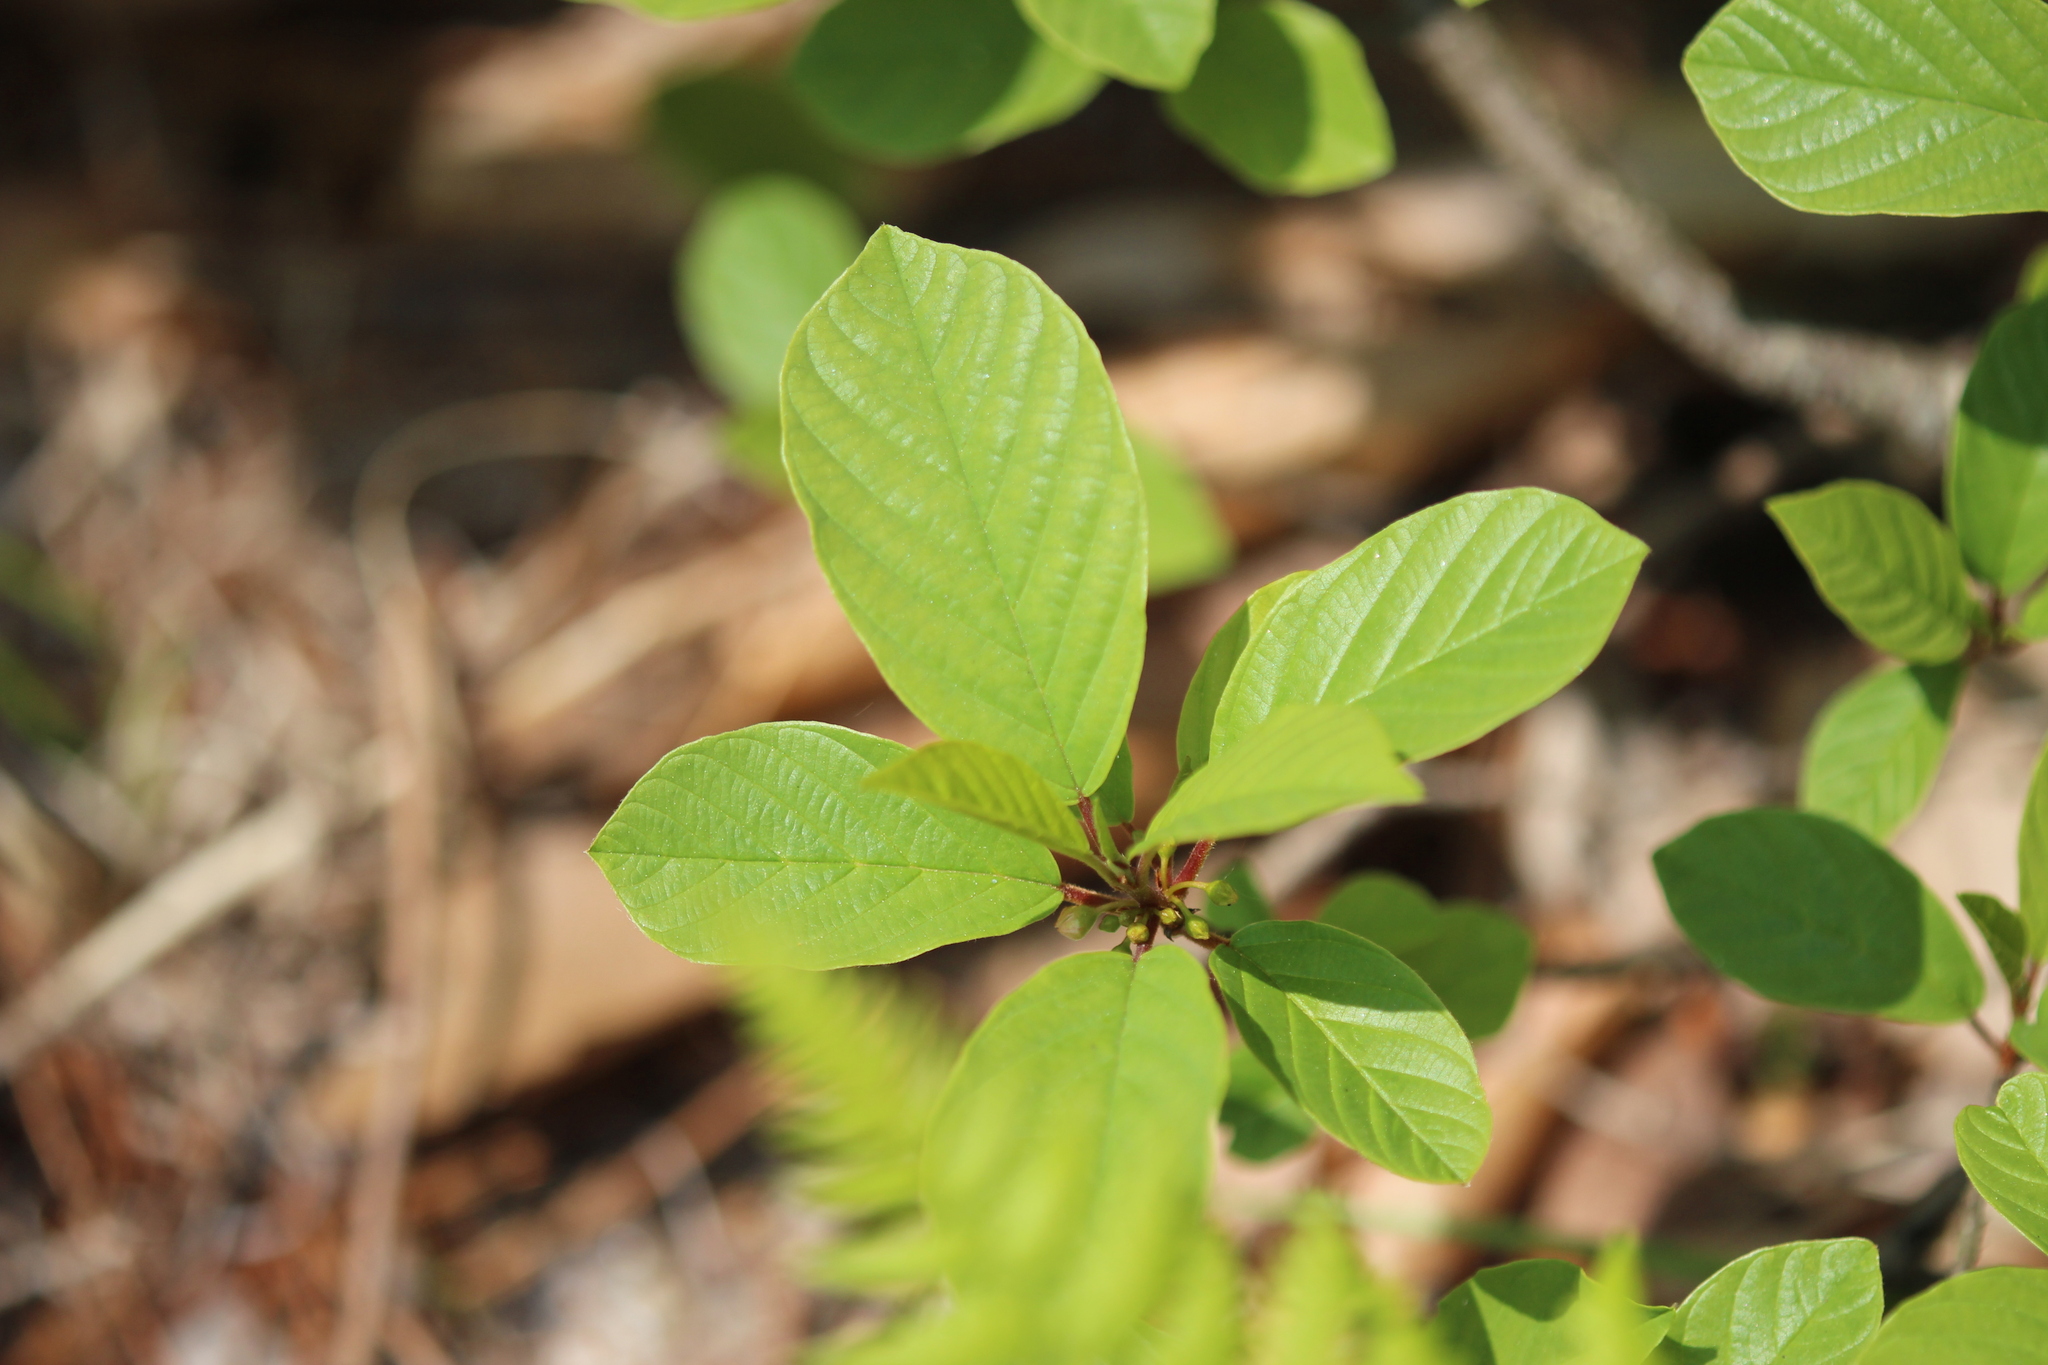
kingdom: Plantae
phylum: Tracheophyta
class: Magnoliopsida
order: Rosales
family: Rhamnaceae
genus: Frangula
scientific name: Frangula alnus
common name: Alder buckthorn
